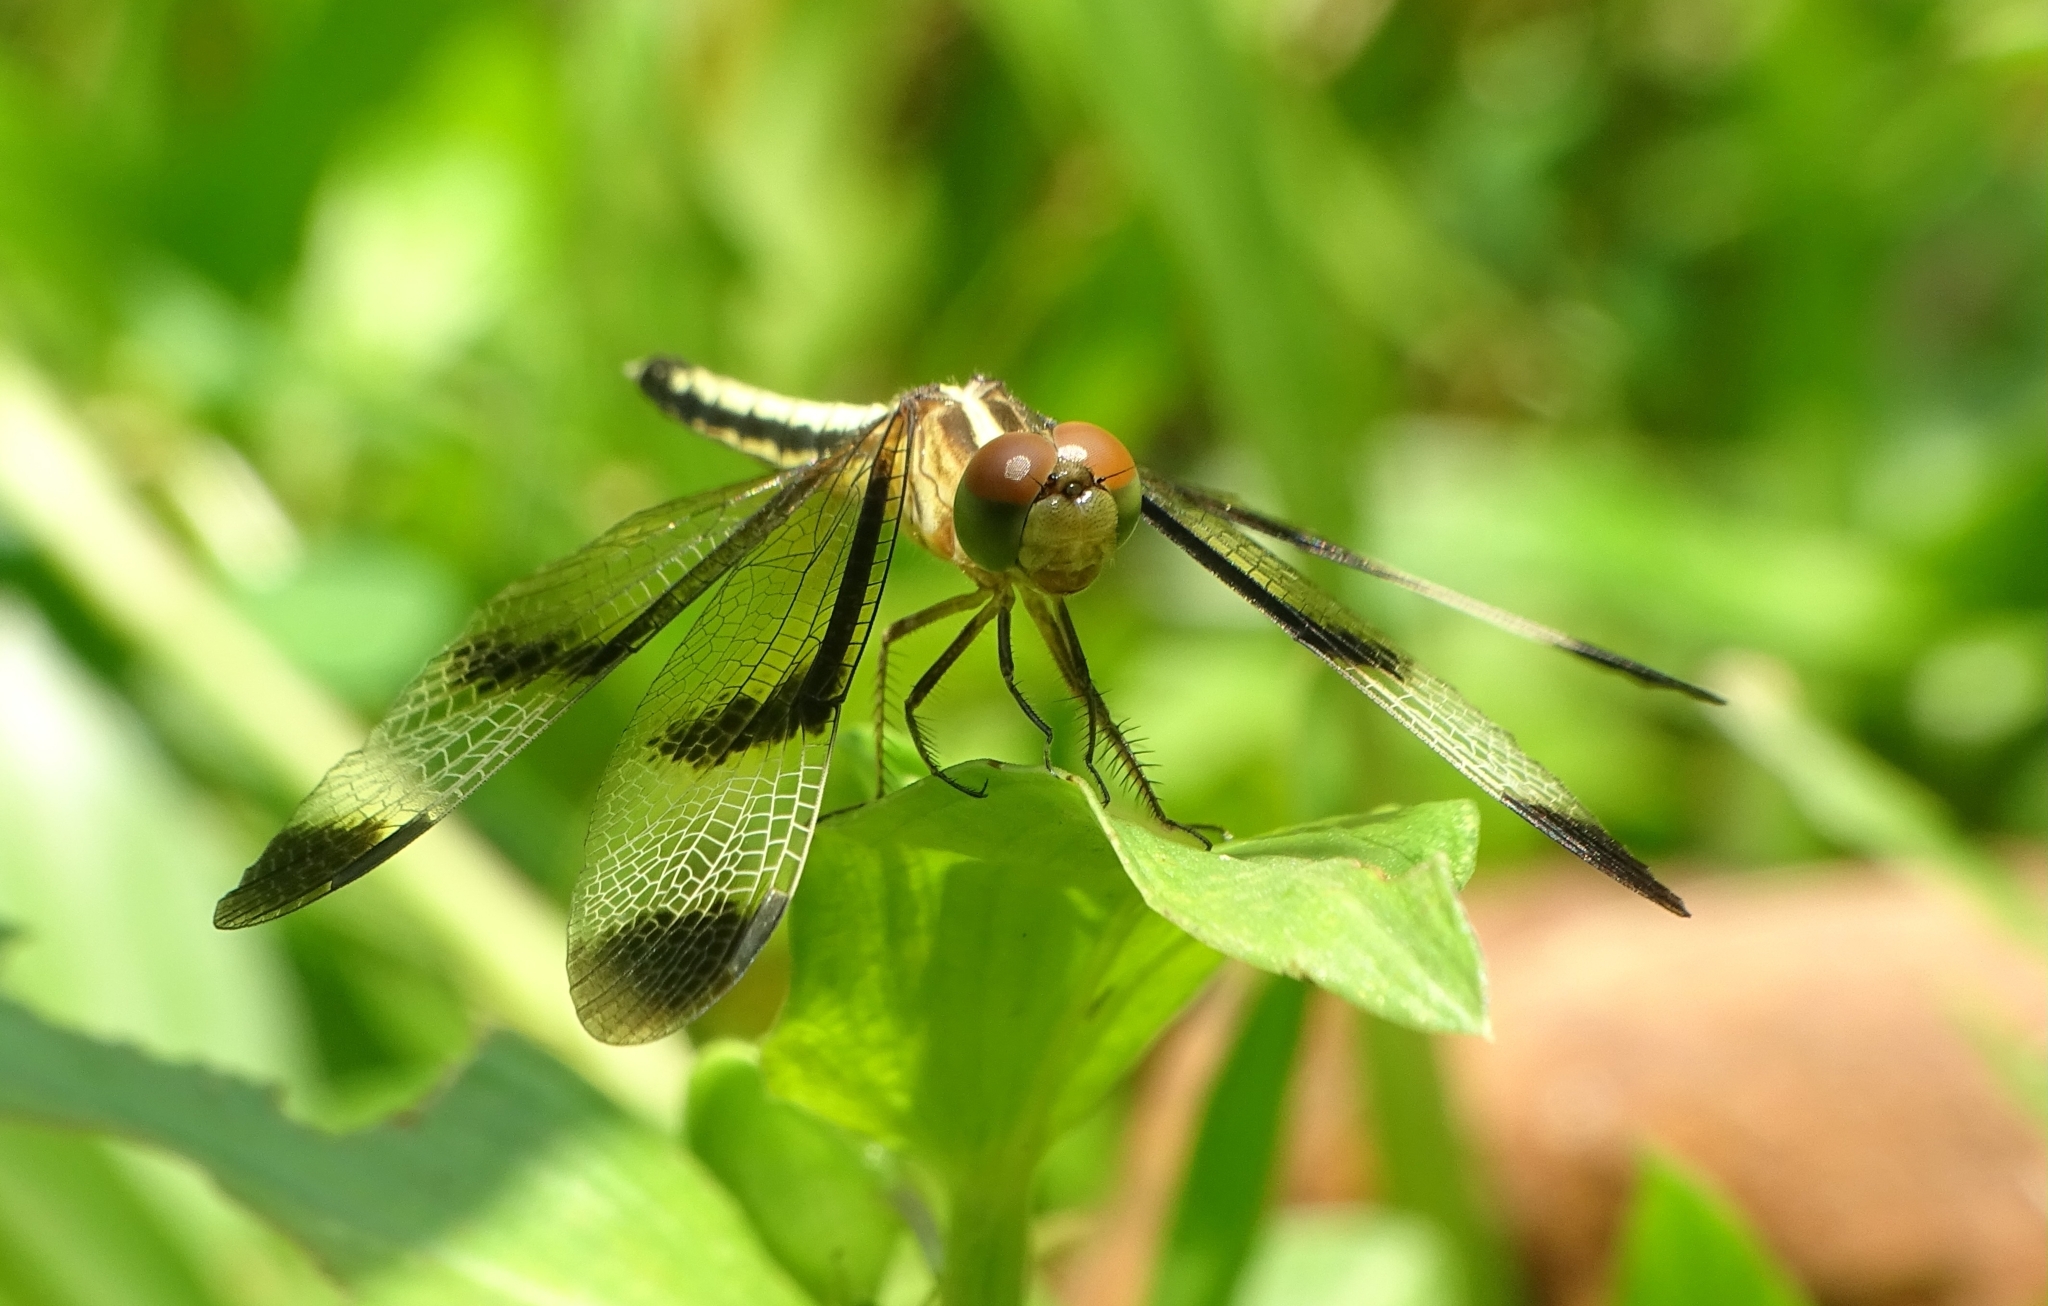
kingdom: Animalia
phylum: Arthropoda
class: Insecta
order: Odonata
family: Libellulidae
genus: Neurothemis
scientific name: Neurothemis tullia
